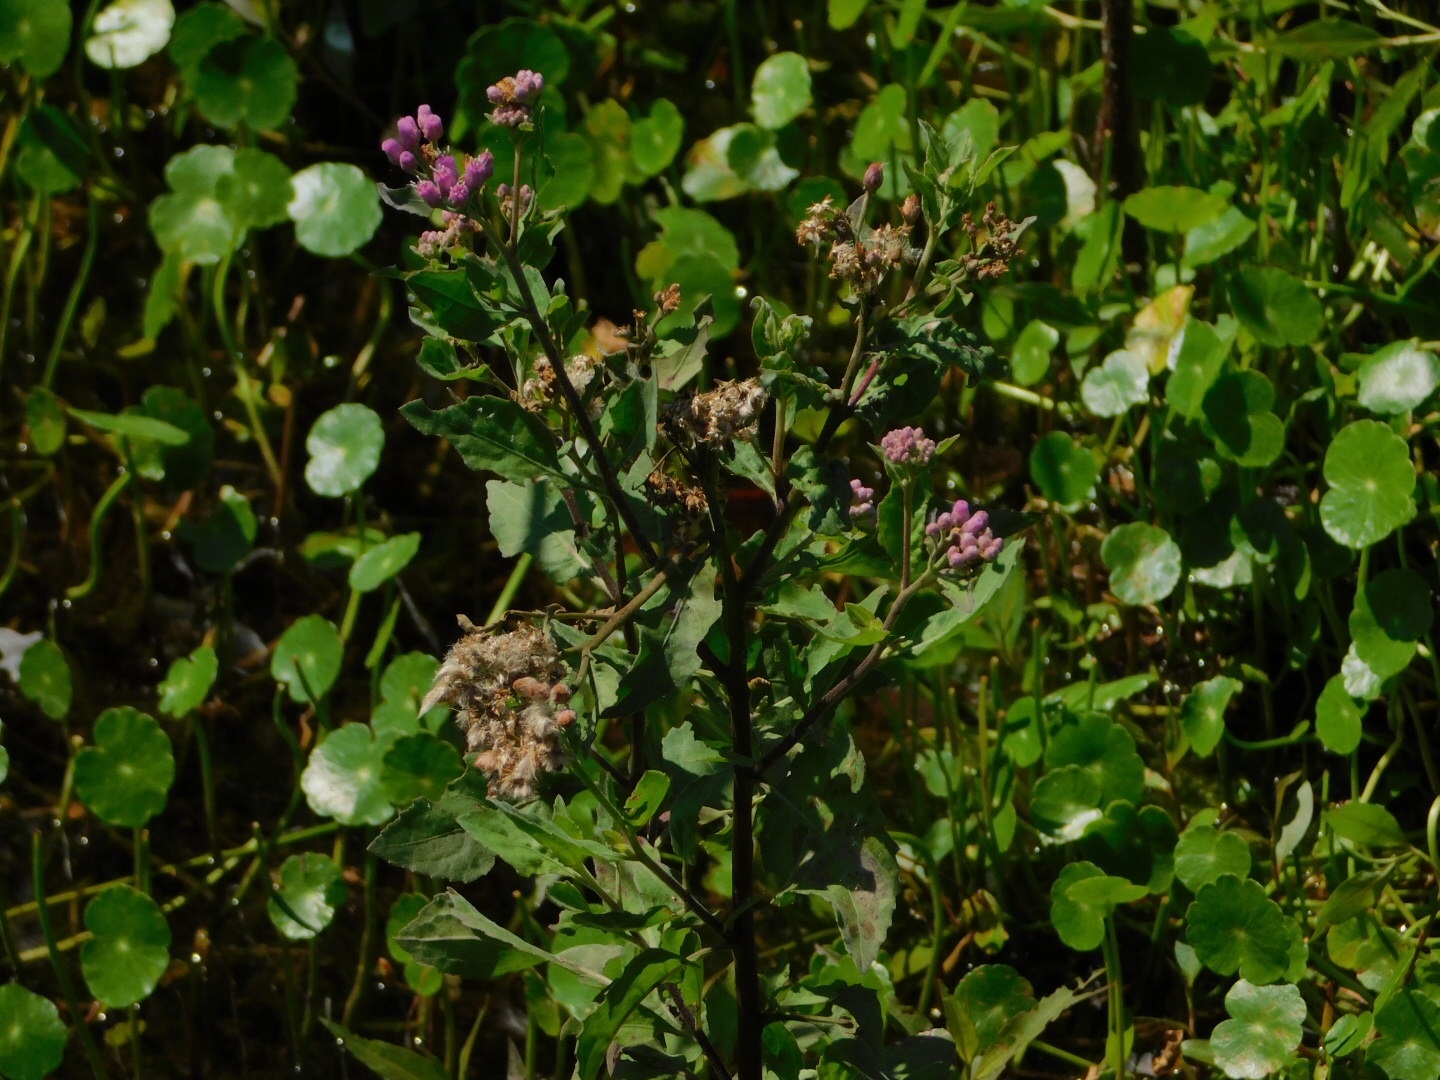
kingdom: Plantae
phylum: Tracheophyta
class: Magnoliopsida
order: Asterales
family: Asteraceae
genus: Pluchea
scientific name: Pluchea odorata
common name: Saltmarsh fleabane
